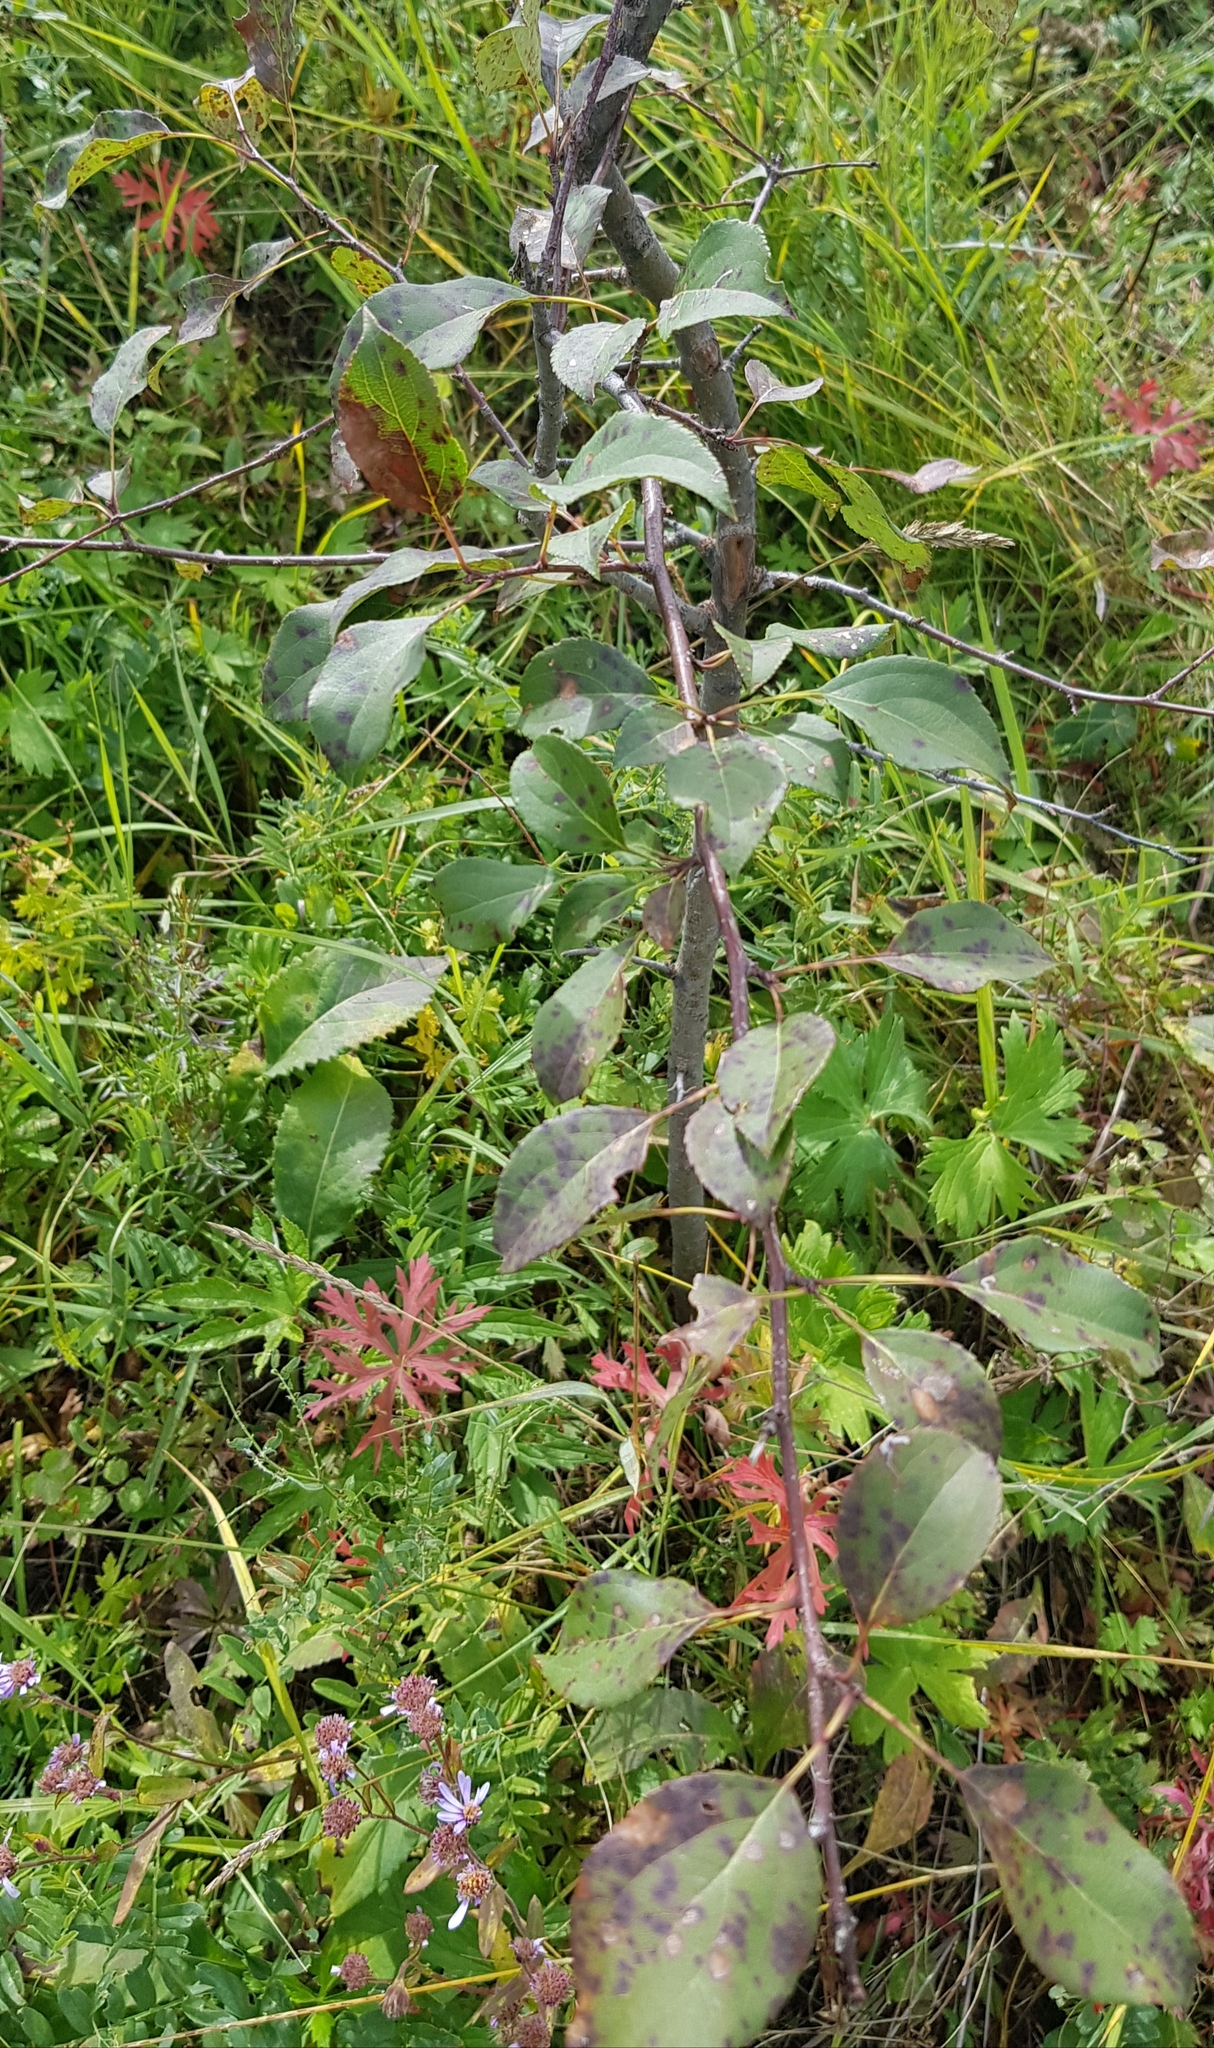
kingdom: Plantae
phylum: Tracheophyta
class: Magnoliopsida
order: Rosales
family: Rosaceae
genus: Malus
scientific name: Malus baccata
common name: Siberian crab
